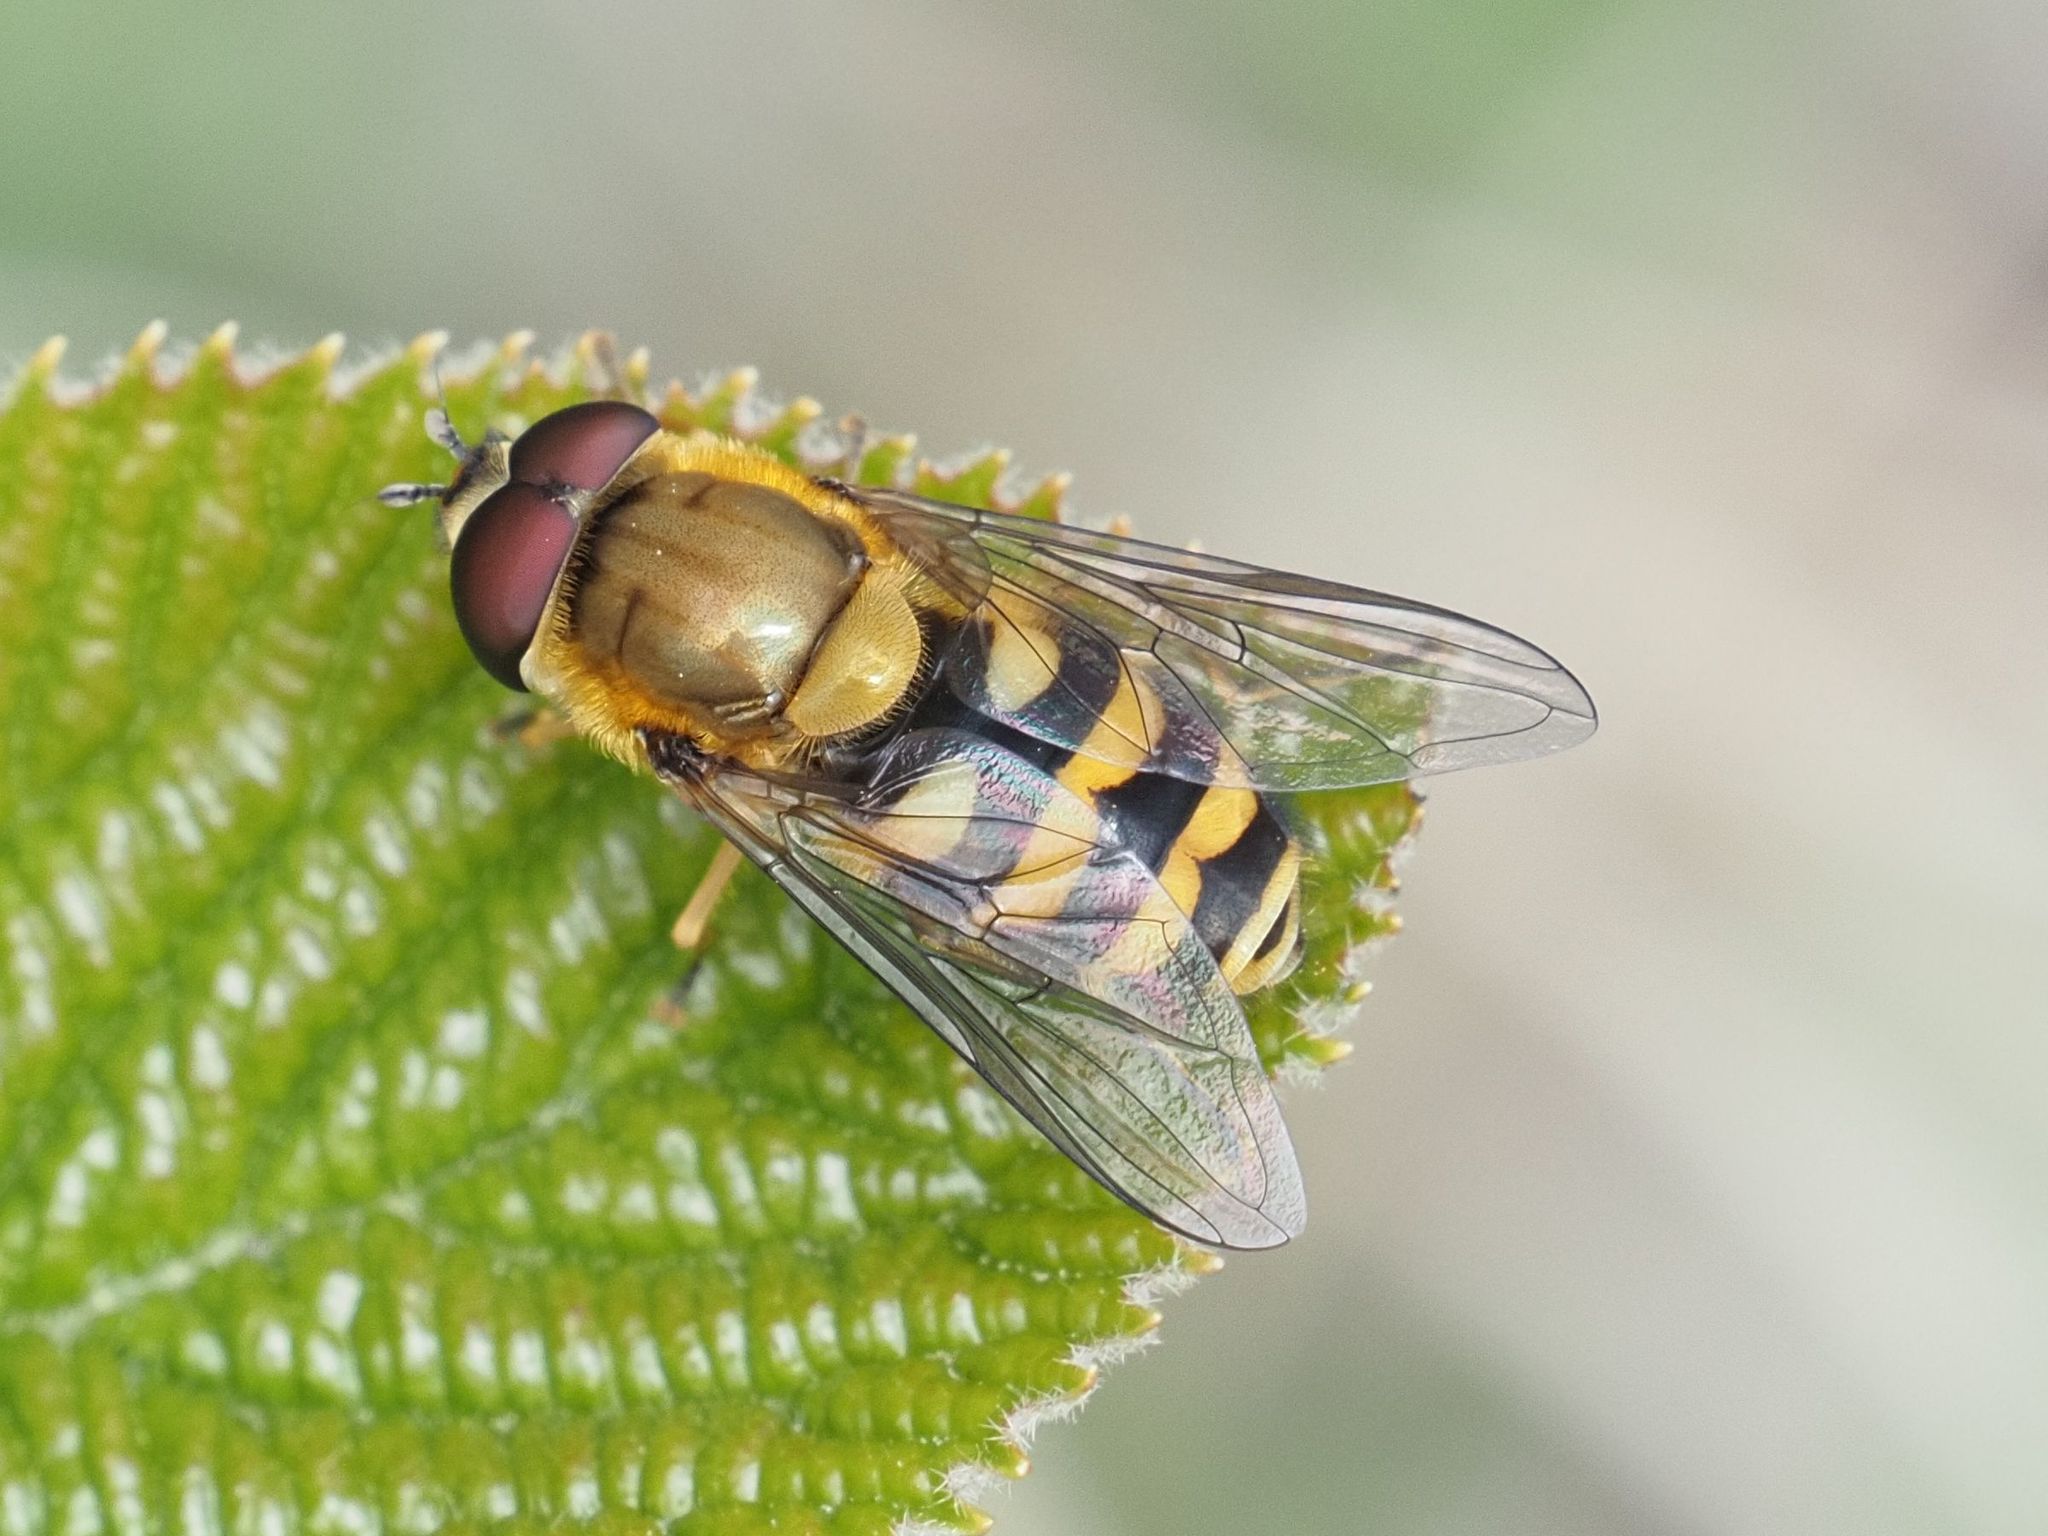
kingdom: Animalia
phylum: Arthropoda
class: Insecta
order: Diptera
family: Syrphidae
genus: Syrphus
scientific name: Syrphus
